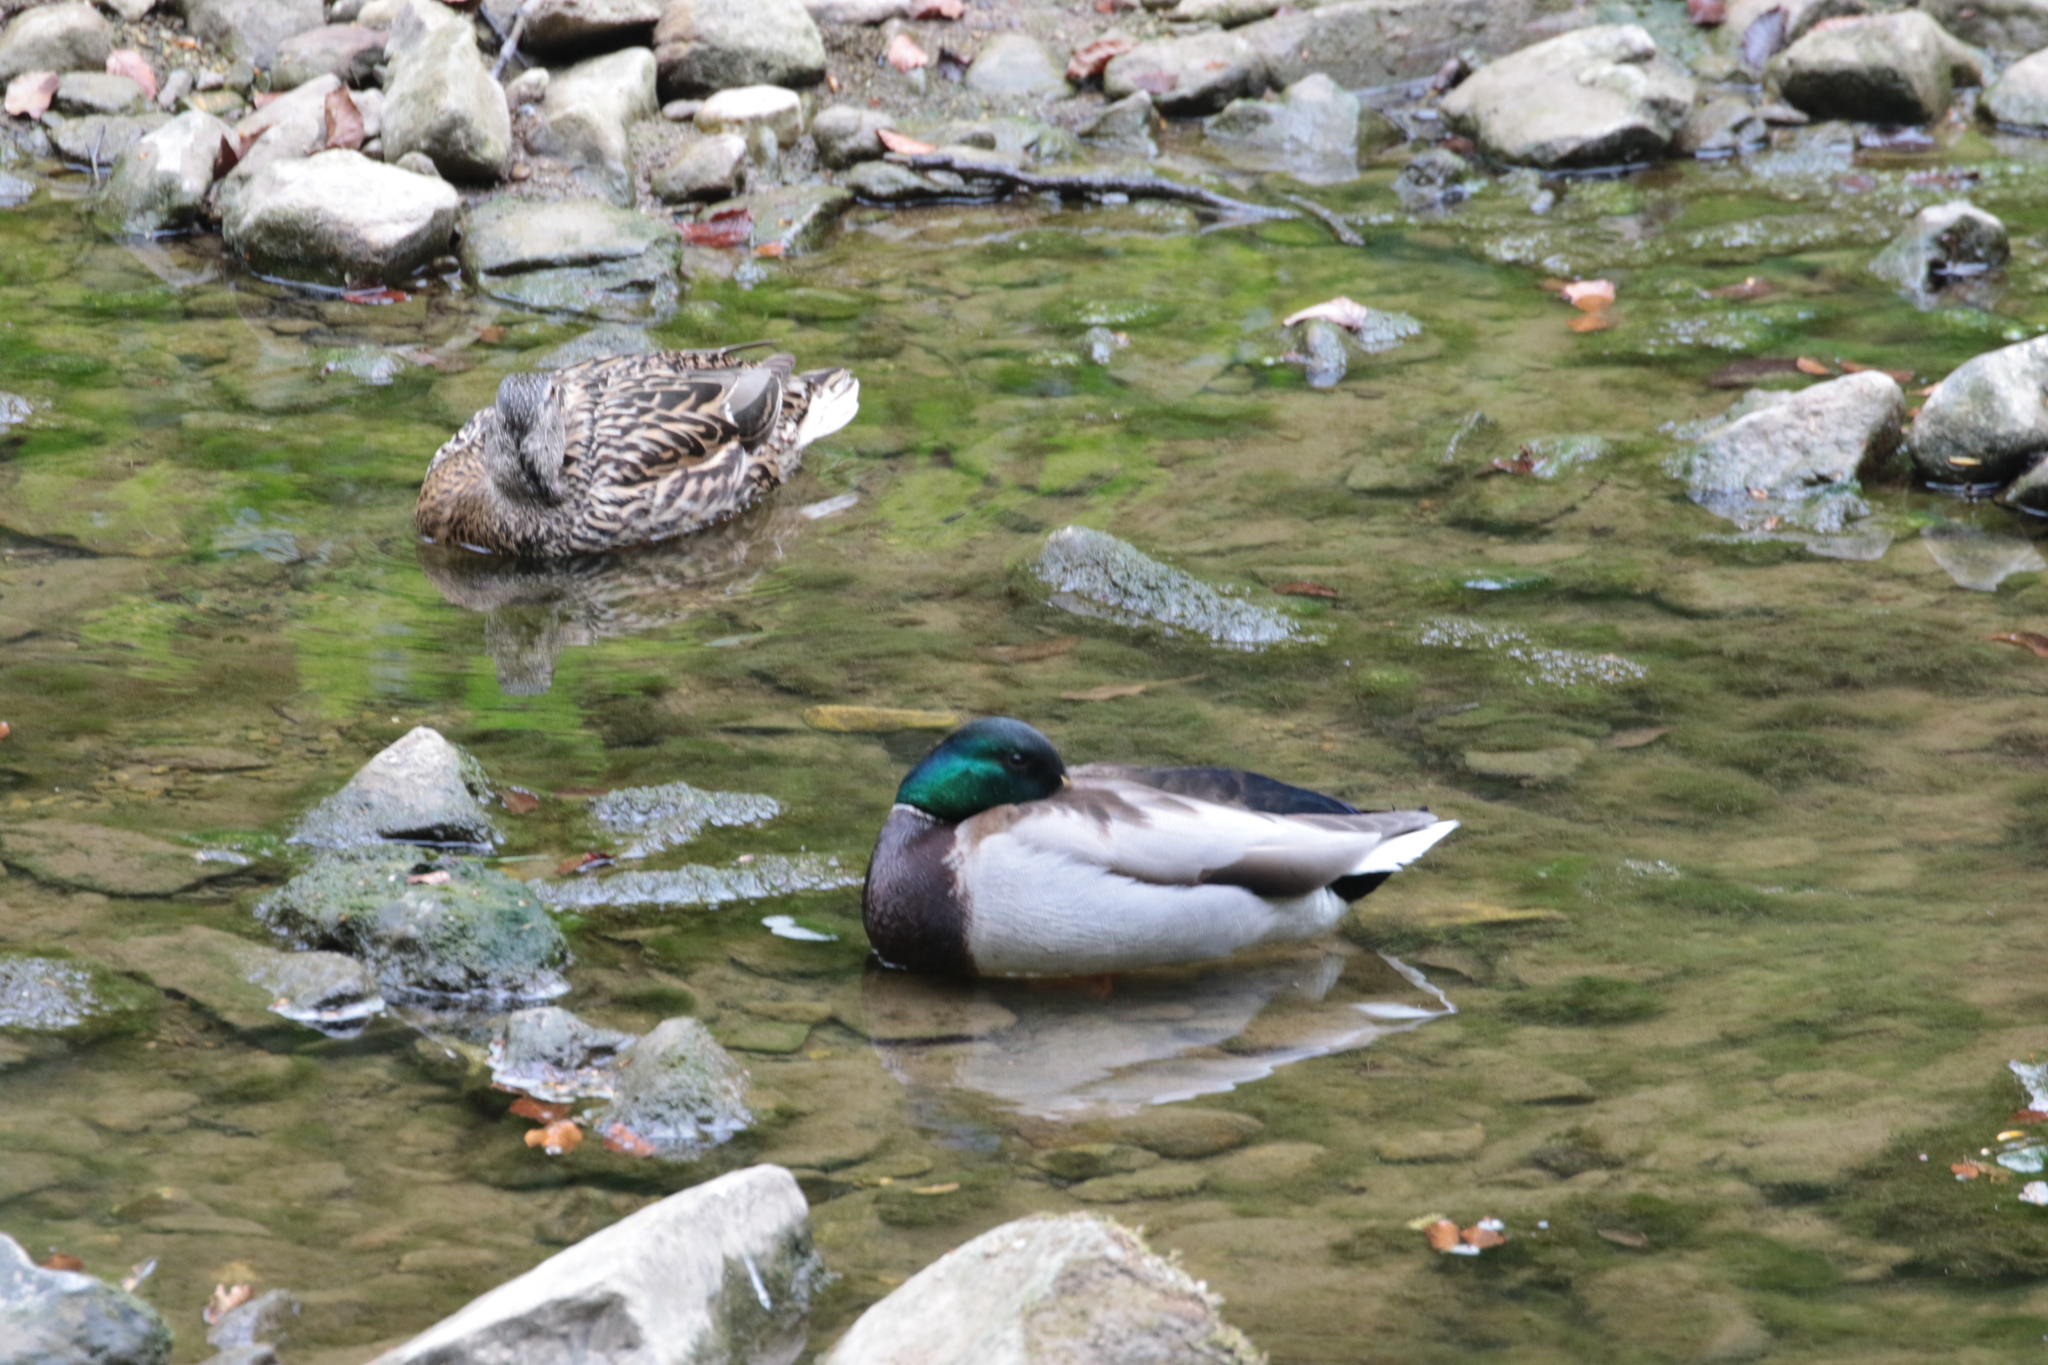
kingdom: Animalia
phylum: Chordata
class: Aves
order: Anseriformes
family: Anatidae
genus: Anas
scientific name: Anas platyrhynchos
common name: Mallard
